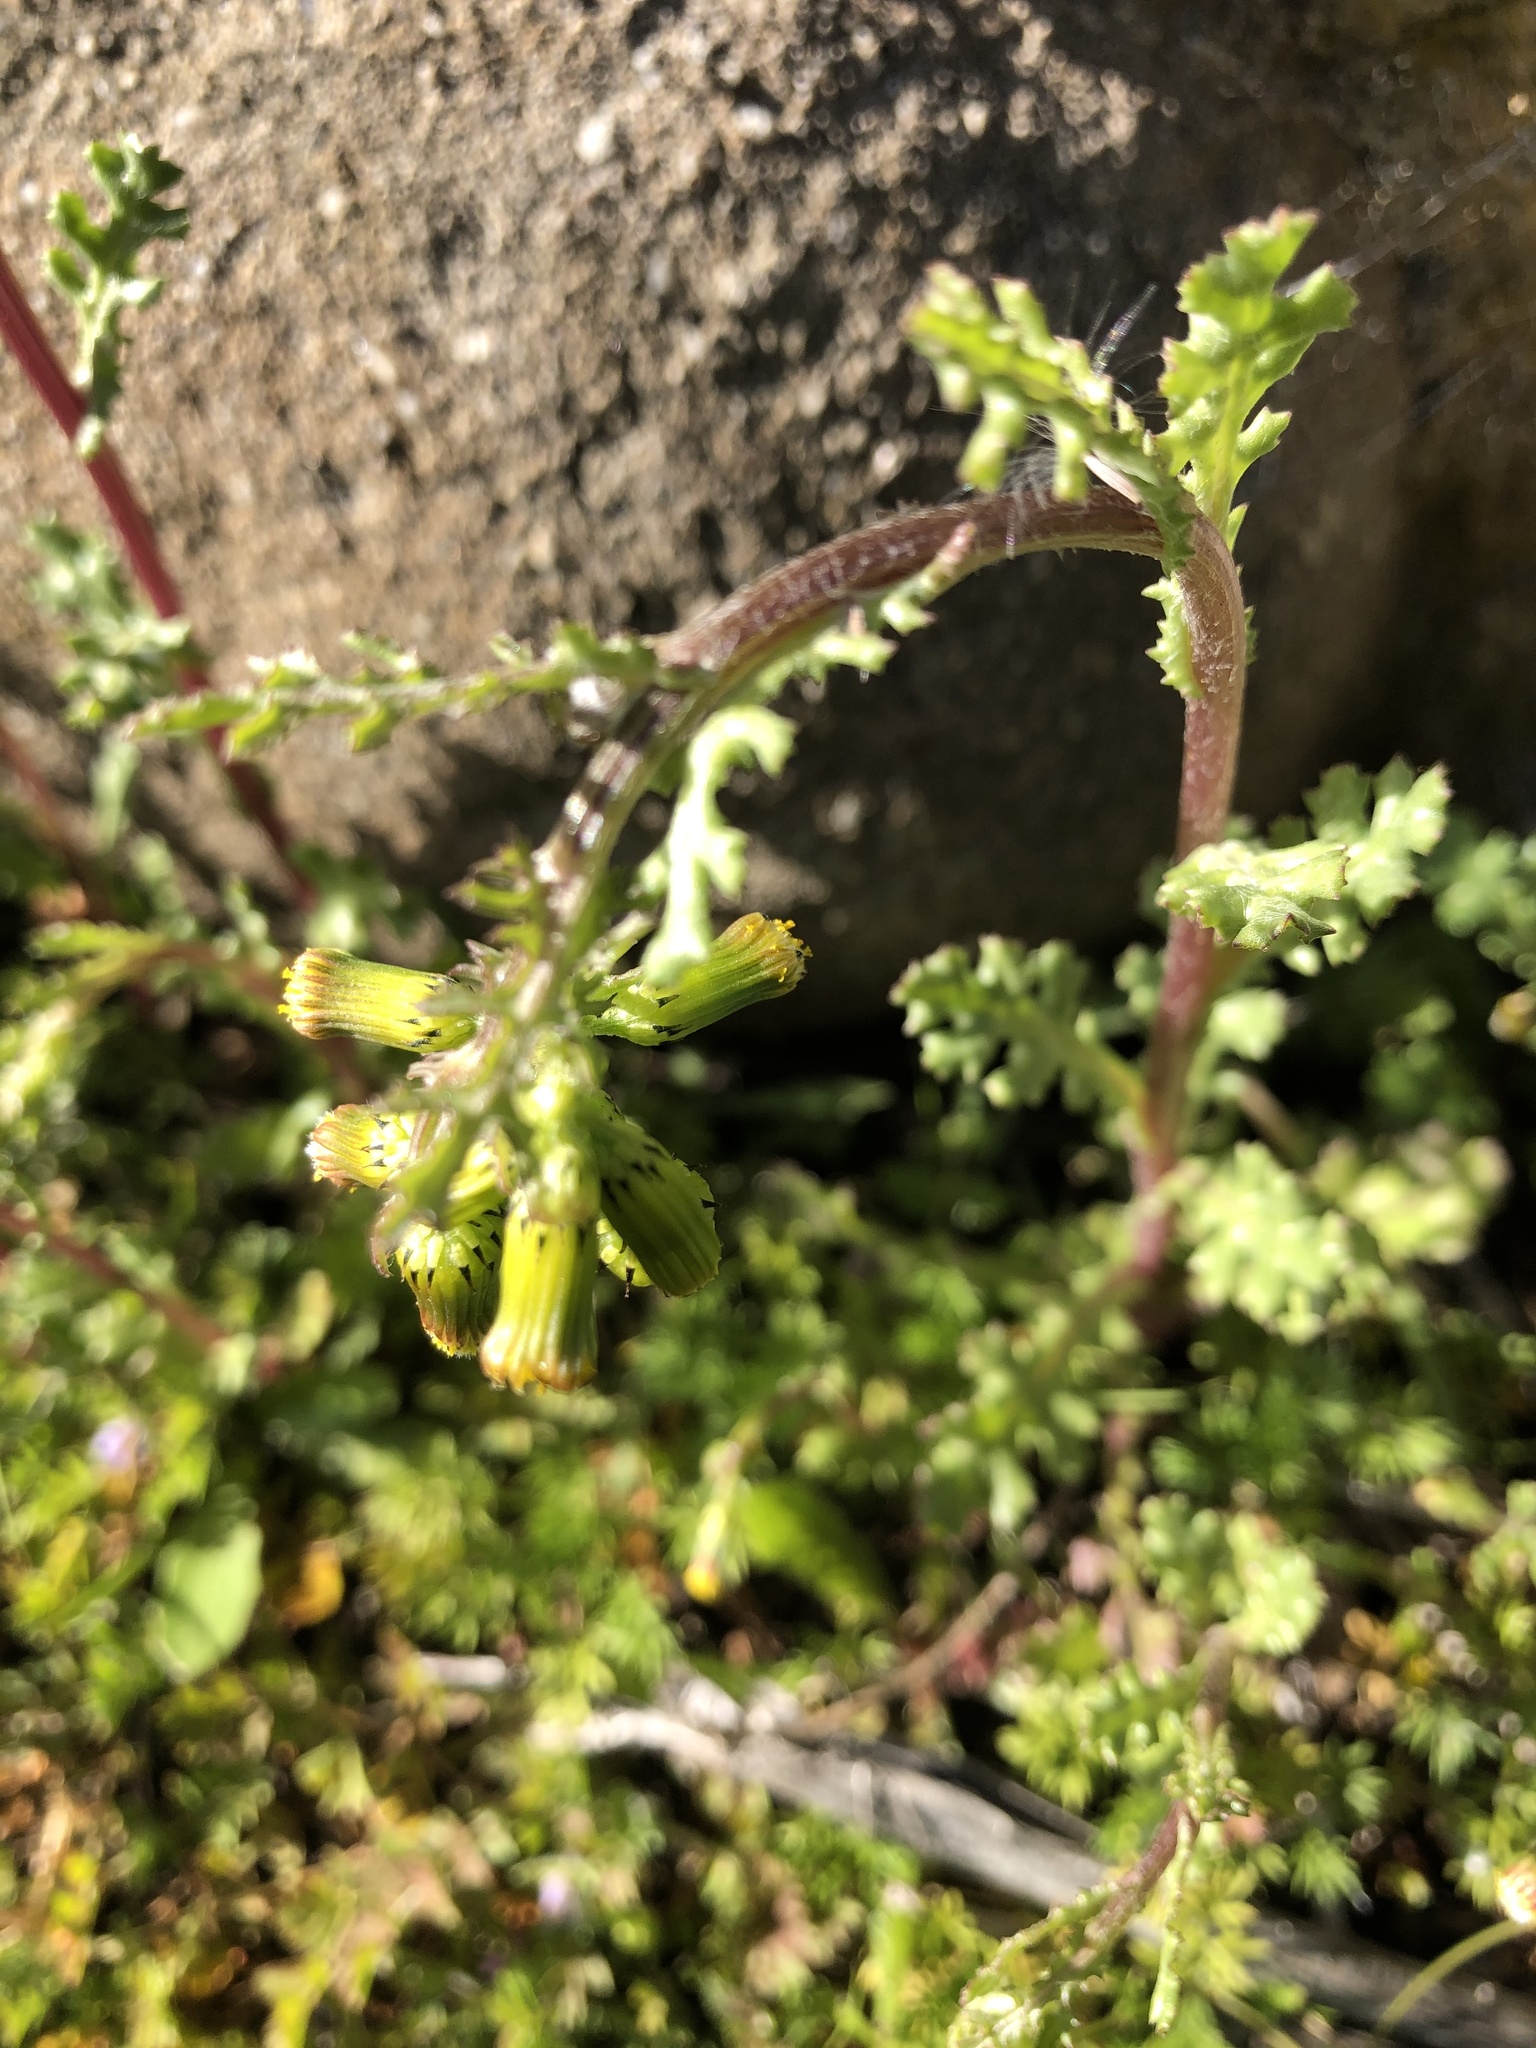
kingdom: Plantae
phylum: Tracheophyta
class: Magnoliopsida
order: Asterales
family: Asteraceae
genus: Senecio
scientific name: Senecio vulgaris
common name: Old-man-in-the-spring
